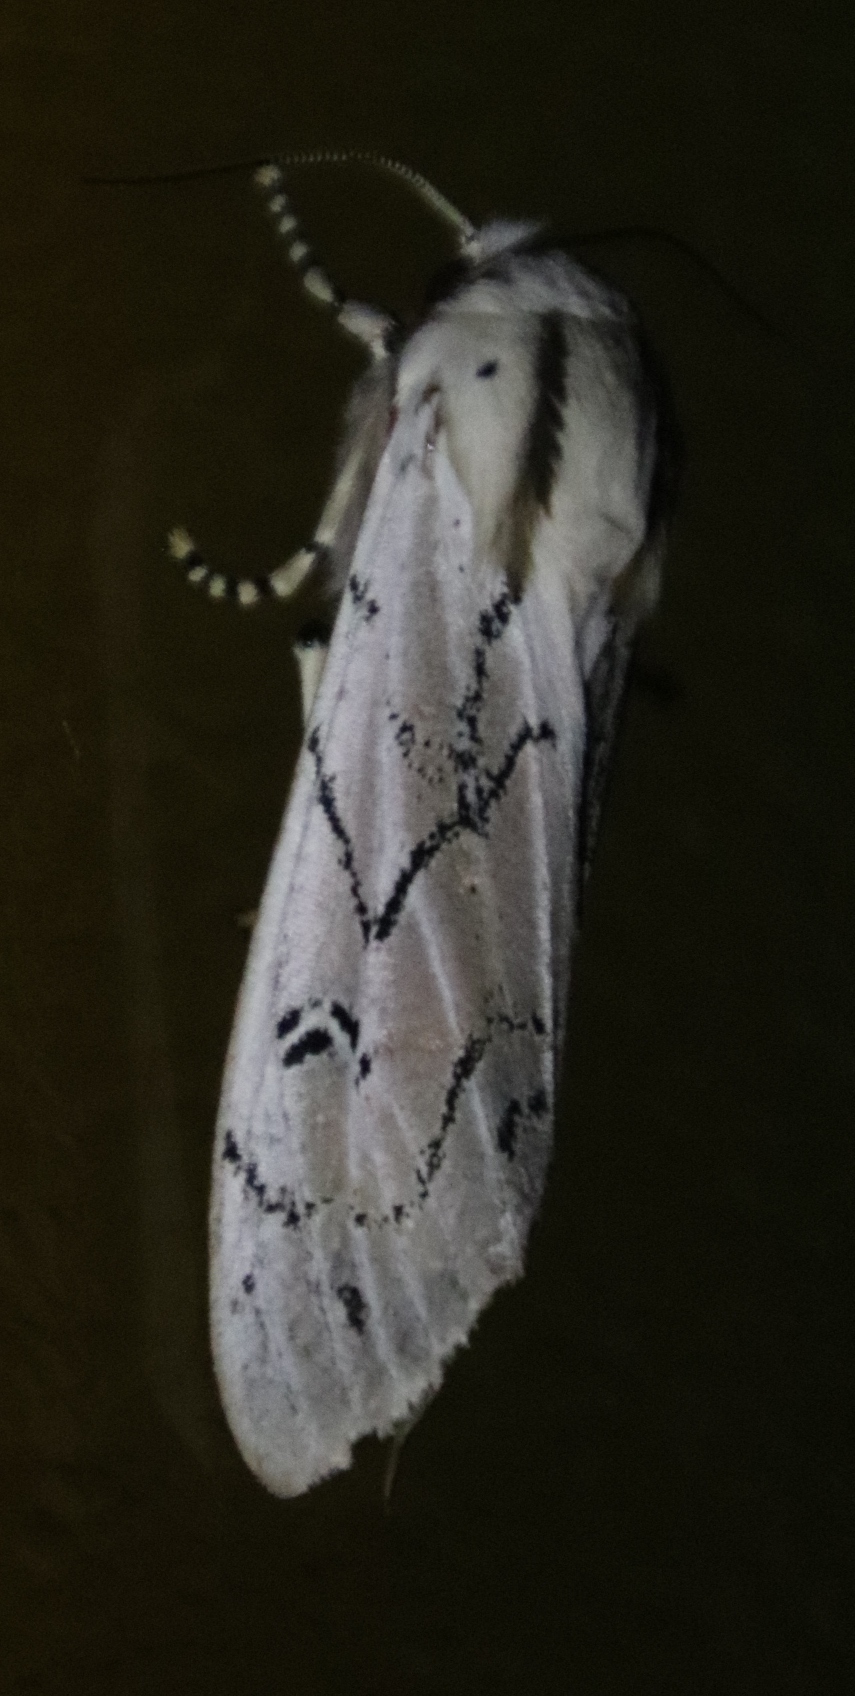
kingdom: Animalia
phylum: Arthropoda
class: Insecta
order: Lepidoptera
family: Erebidae
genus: Rhodogastria
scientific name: Rhodogastria amasis
